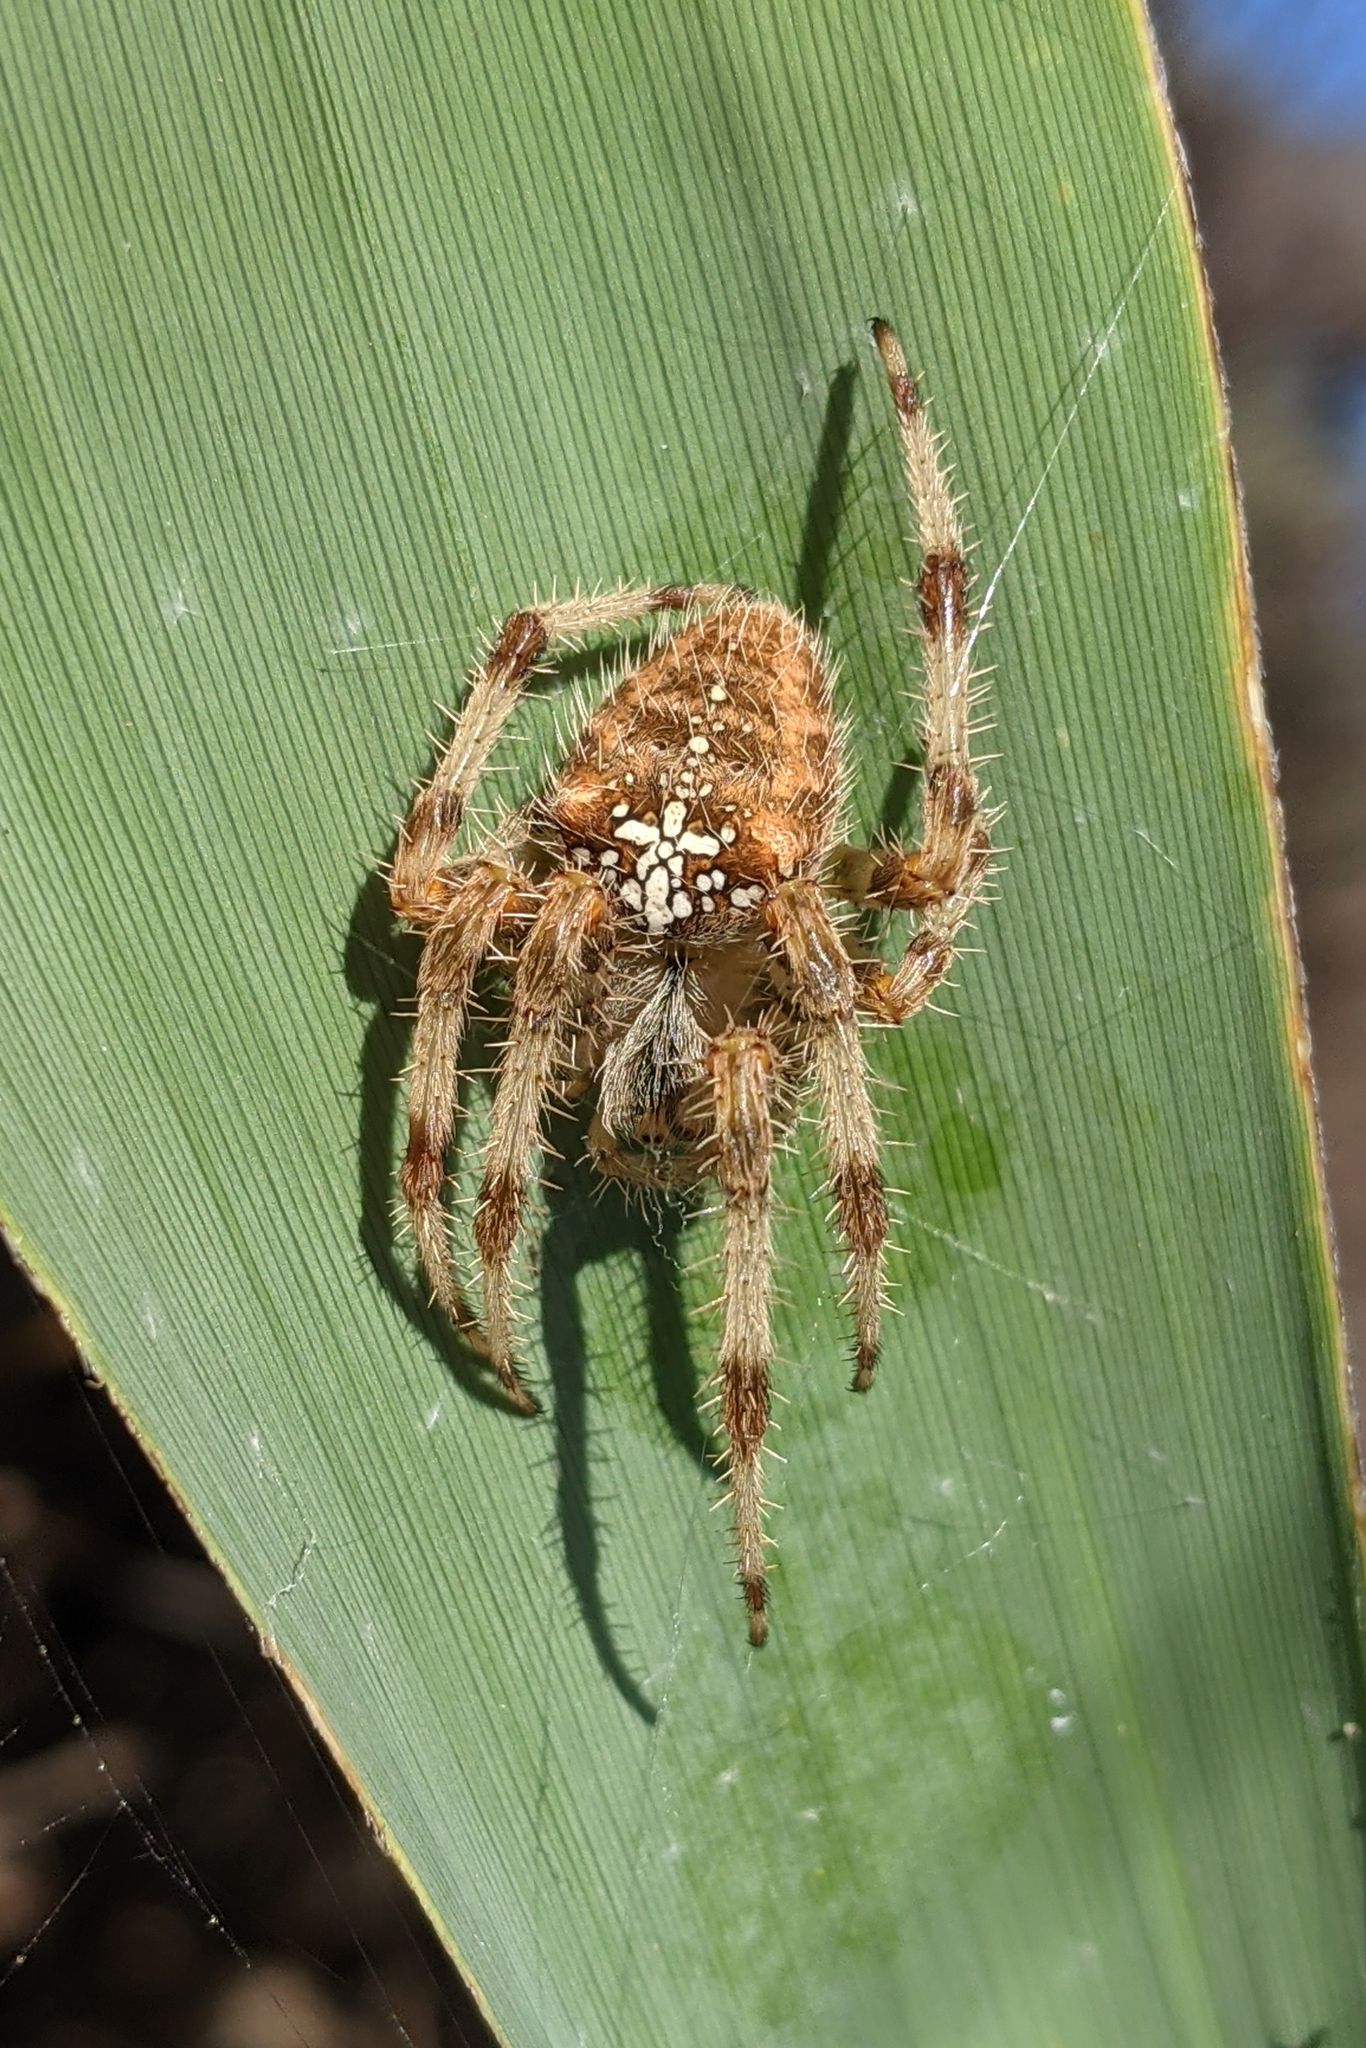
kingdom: Animalia
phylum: Arthropoda
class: Arachnida
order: Araneae
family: Araneidae
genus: Araneus
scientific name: Araneus pallidus
